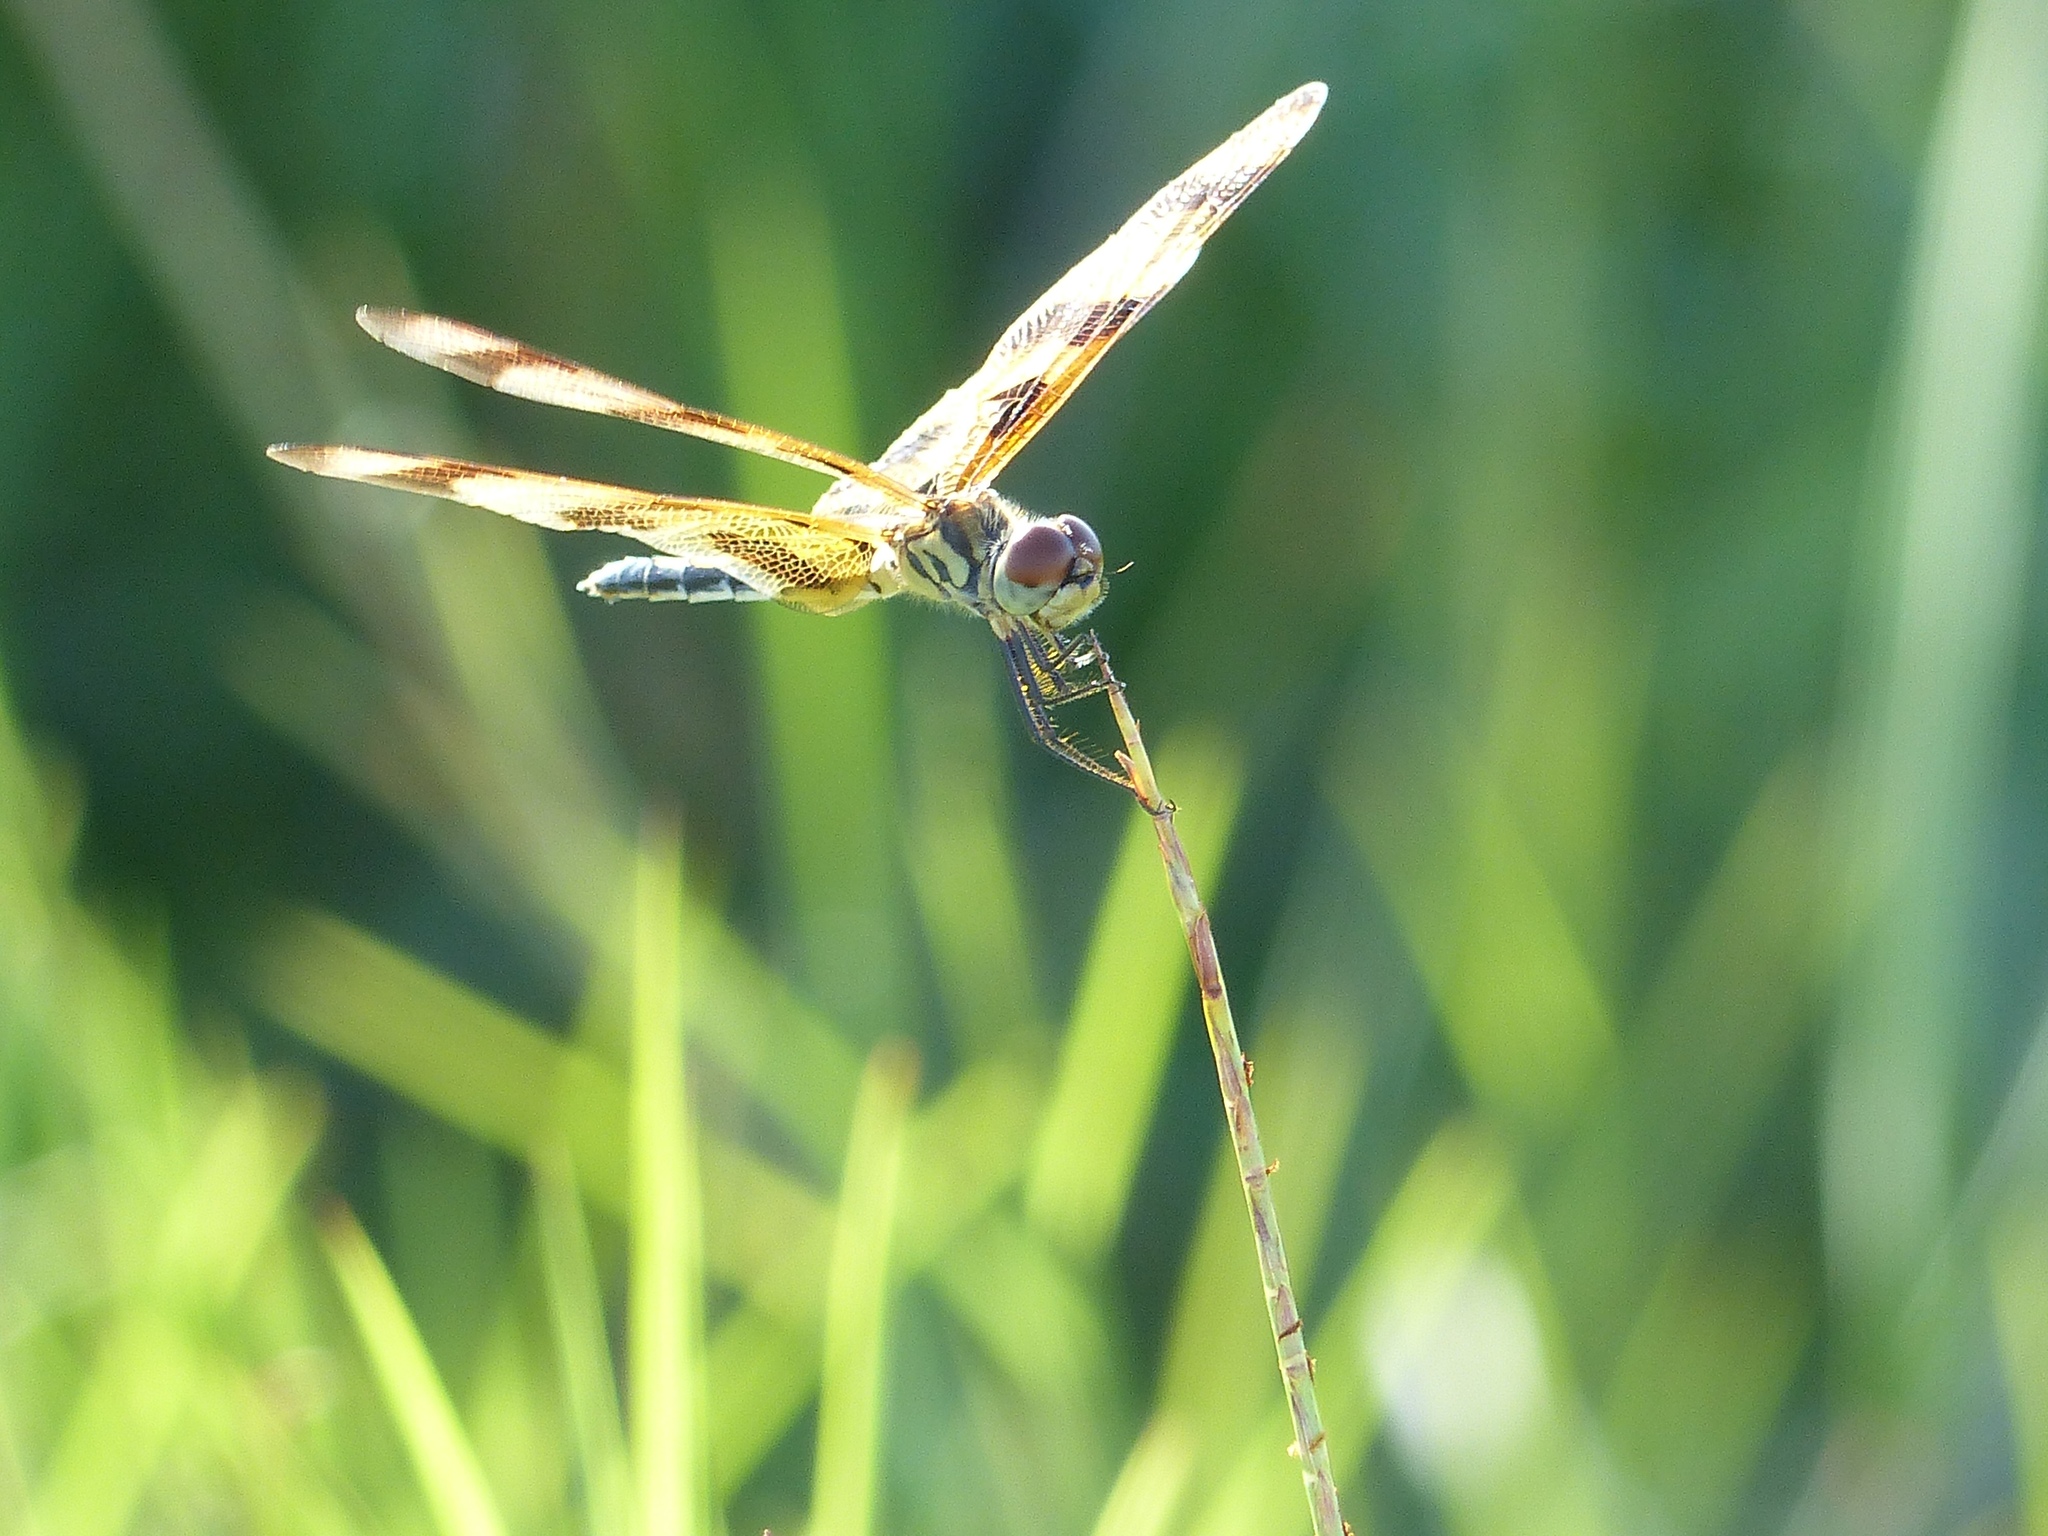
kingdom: Animalia
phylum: Arthropoda
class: Insecta
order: Odonata
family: Libellulidae
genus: Celithemis
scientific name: Celithemis eponina
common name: Halloween pennant
